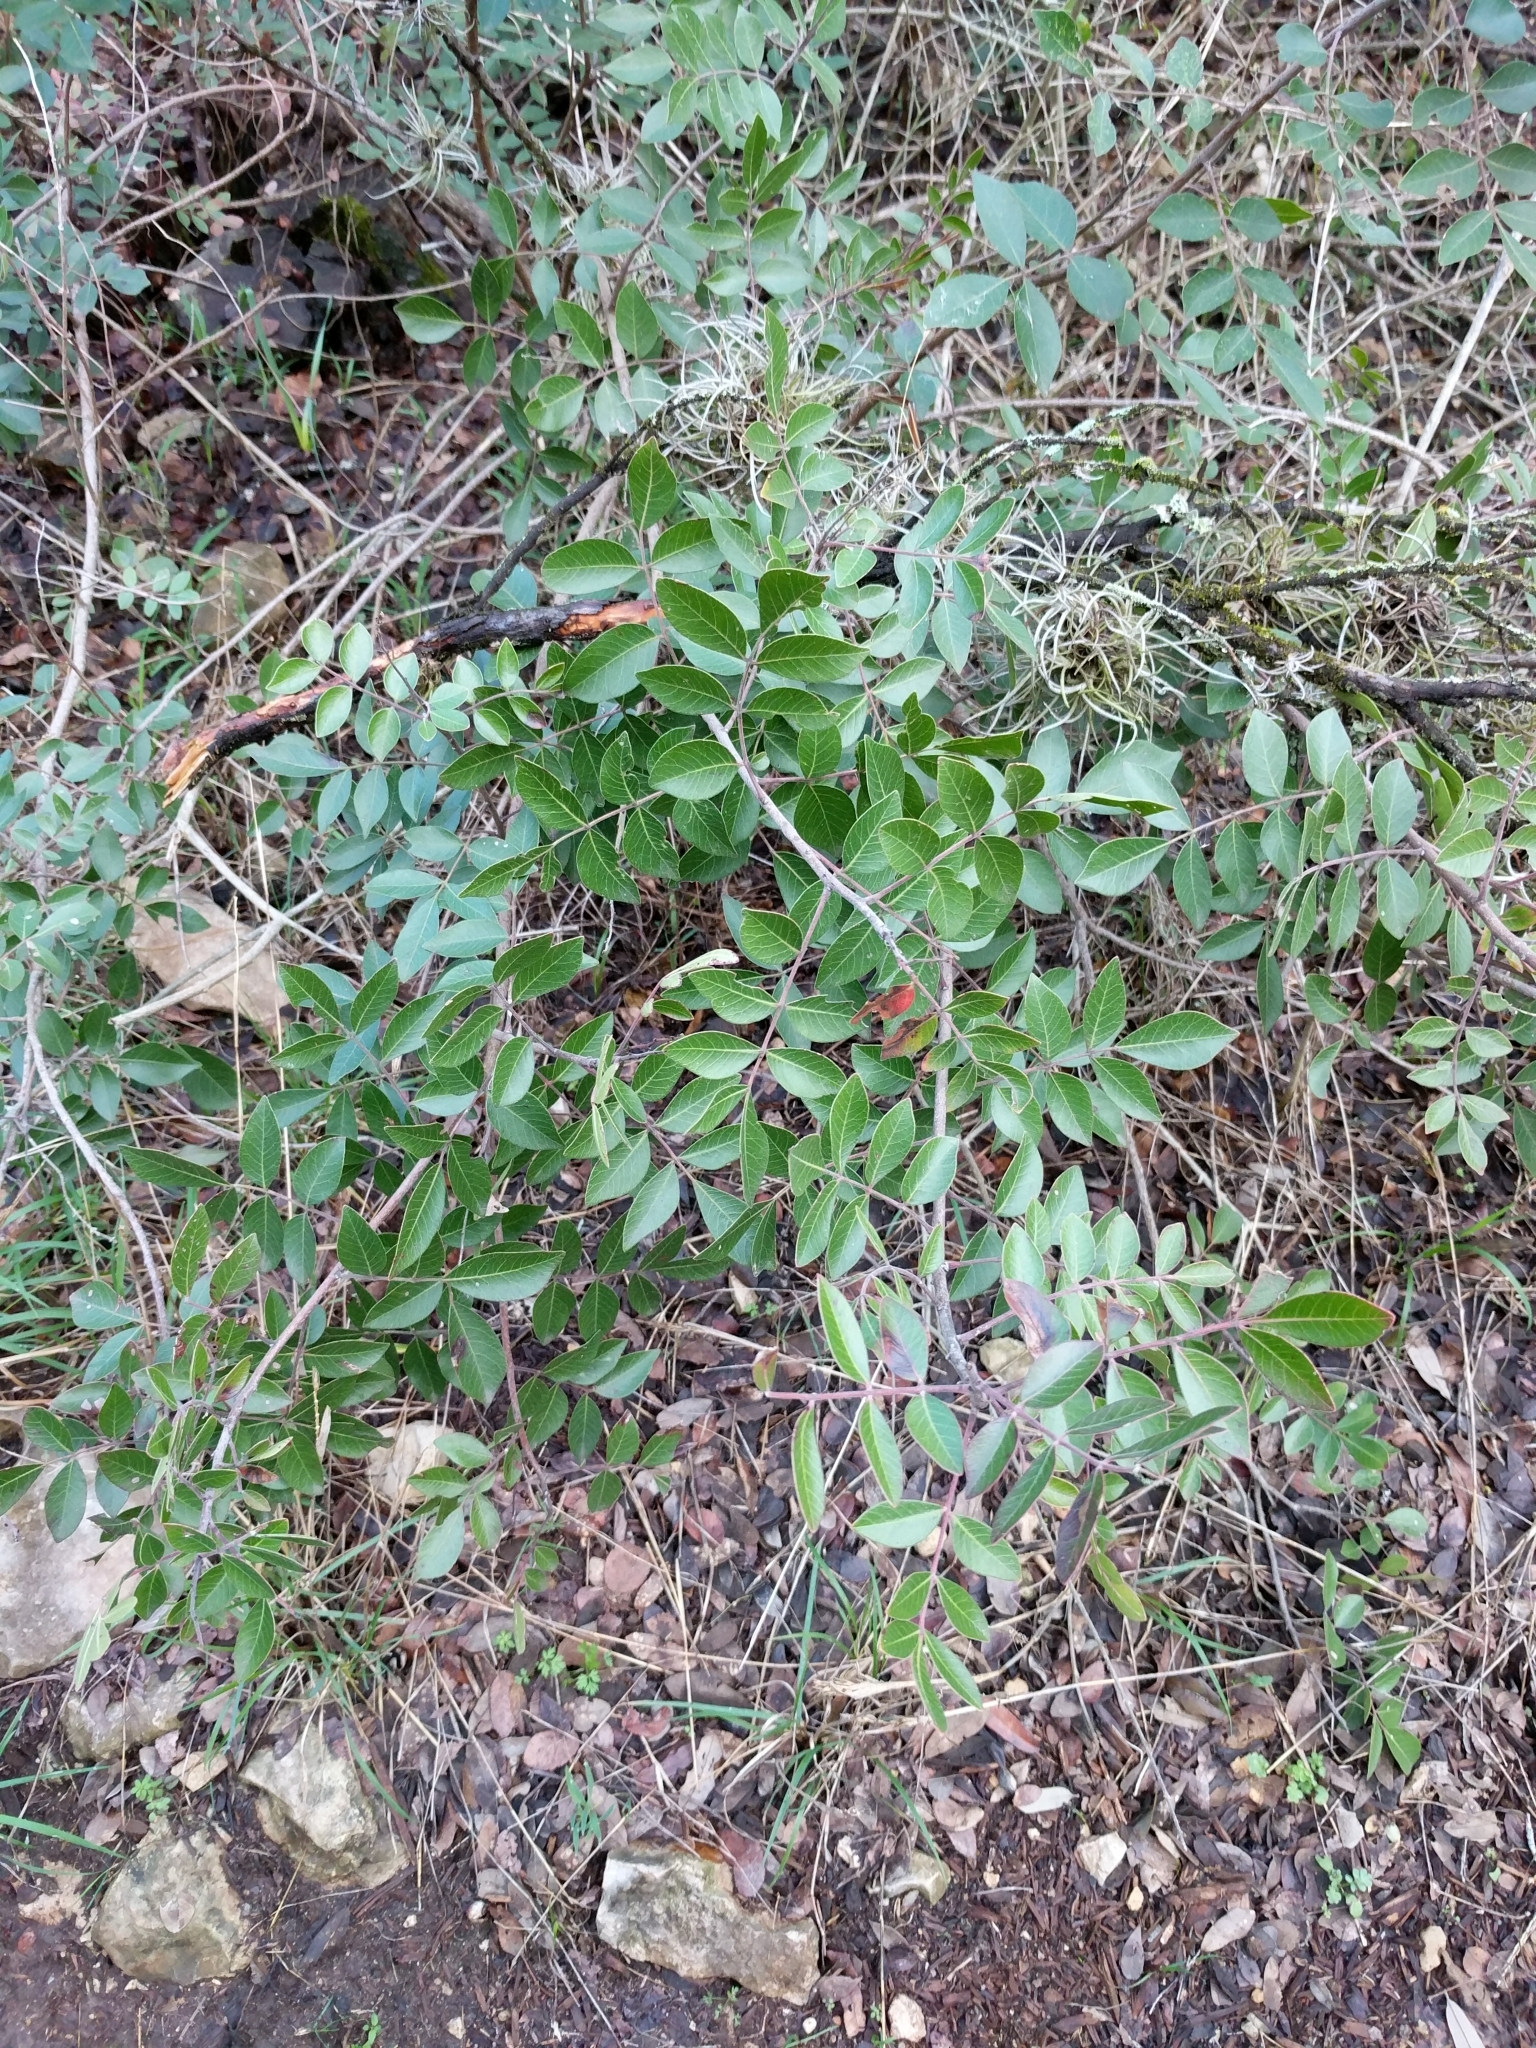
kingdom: Plantae
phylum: Tracheophyta
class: Magnoliopsida
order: Sapindales
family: Anacardiaceae
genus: Rhus
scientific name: Rhus virens
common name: Evergreen sumac
